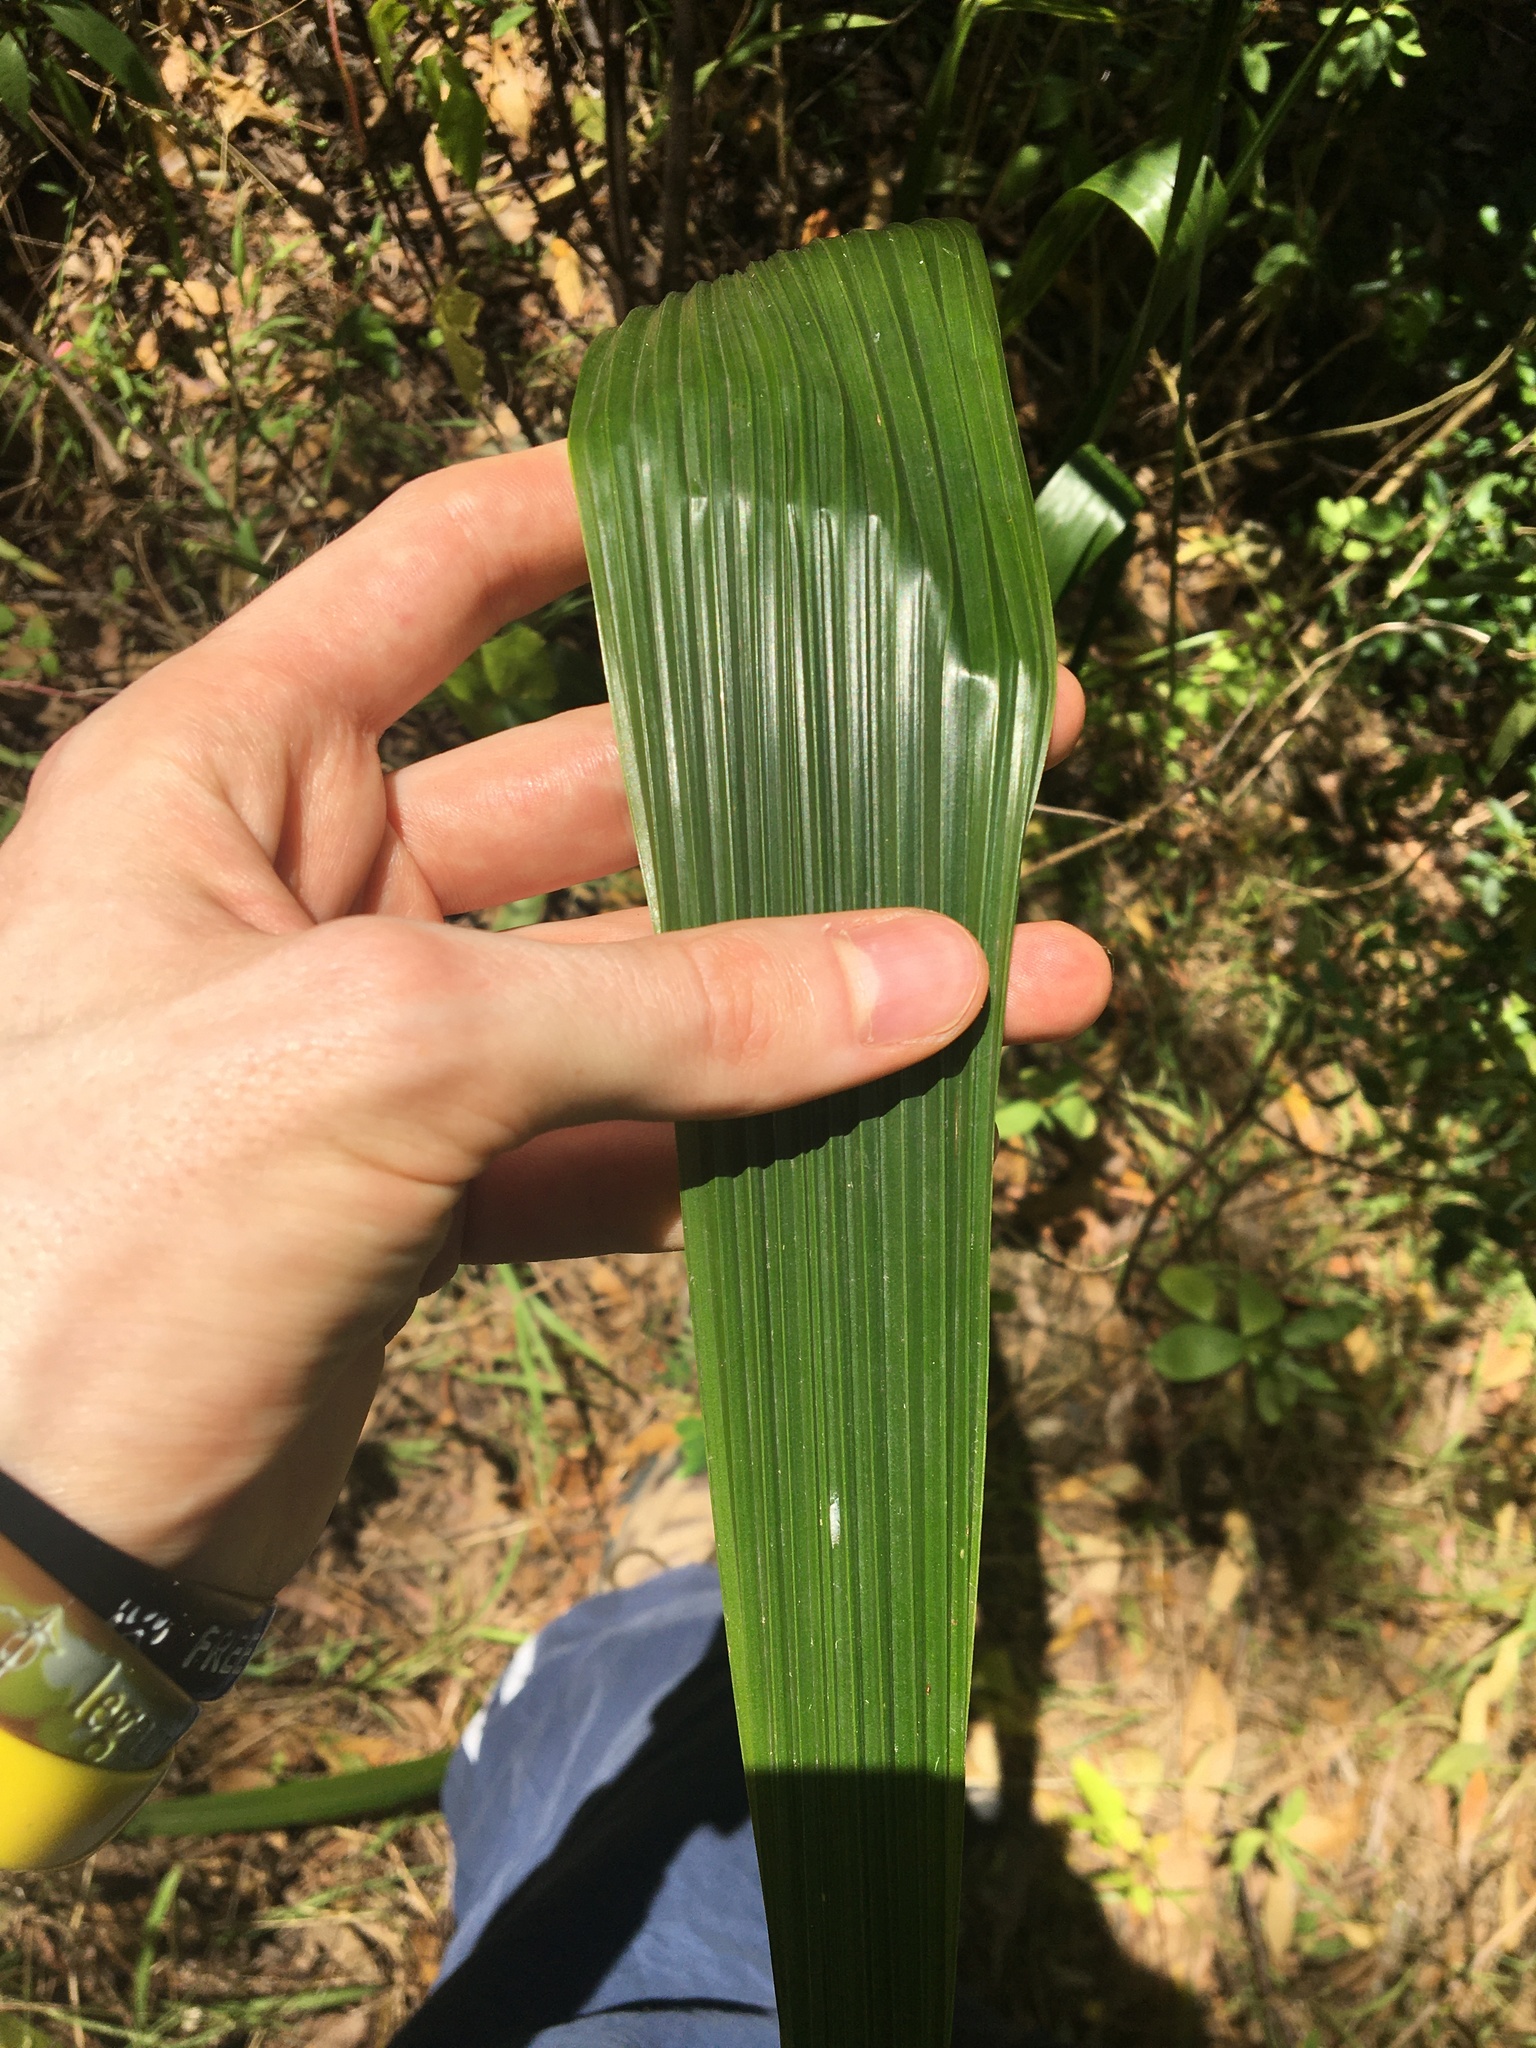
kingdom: Plantae
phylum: Tracheophyta
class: Liliopsida
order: Arecales
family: Arecaceae
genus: Syagrus
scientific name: Syagrus romanzoffiana
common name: Queen palm
